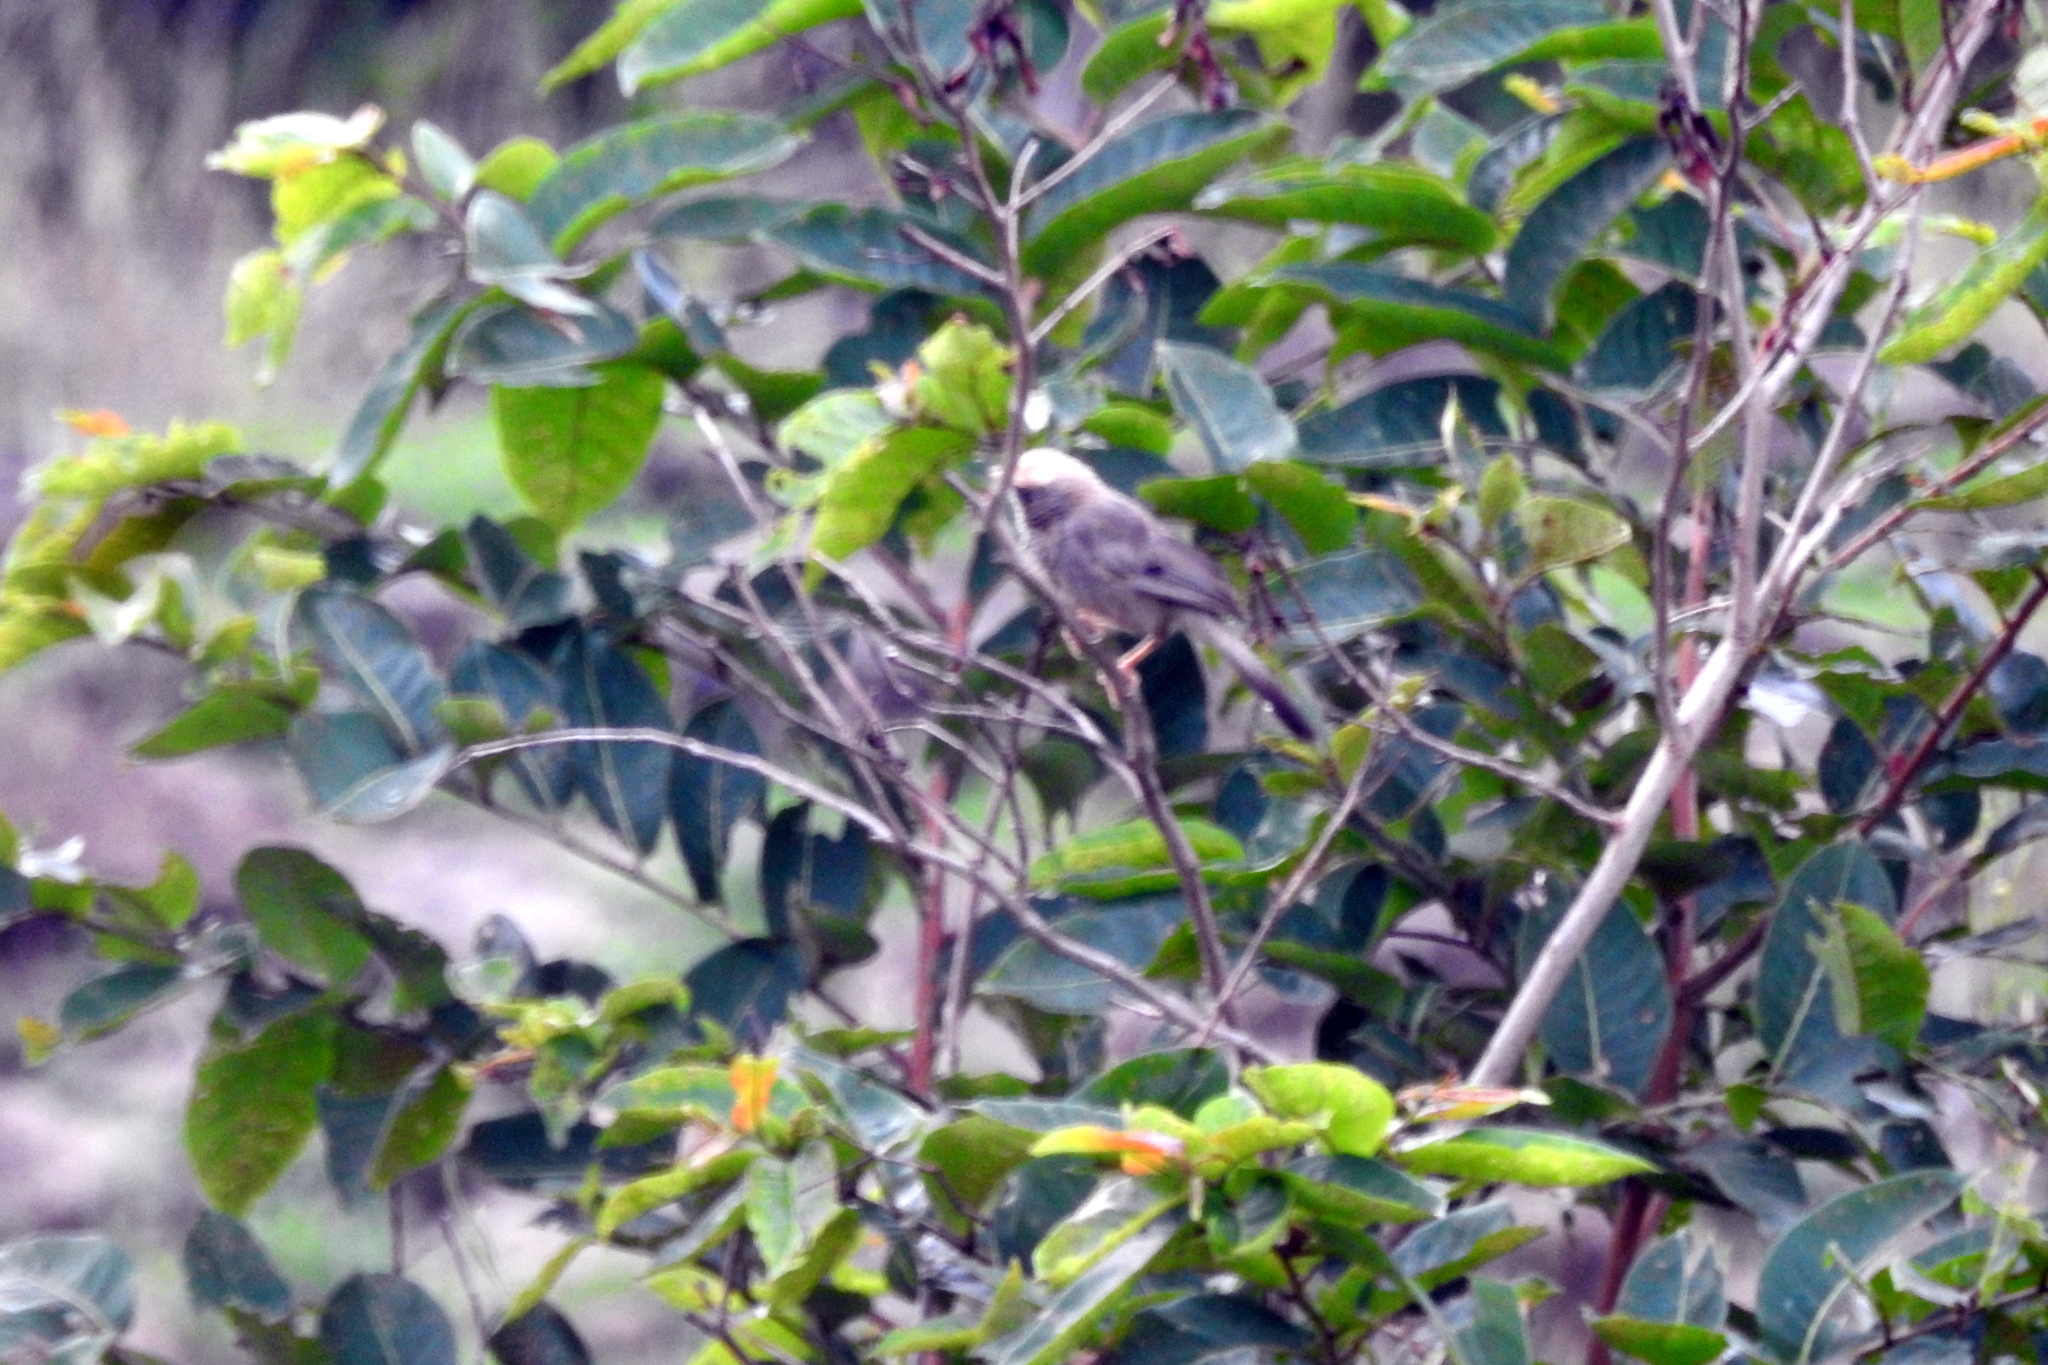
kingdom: Animalia
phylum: Chordata
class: Aves
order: Passeriformes
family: Leiothrichidae
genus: Turdoides
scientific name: Turdoides affinis
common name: Yellow-billed babbler
